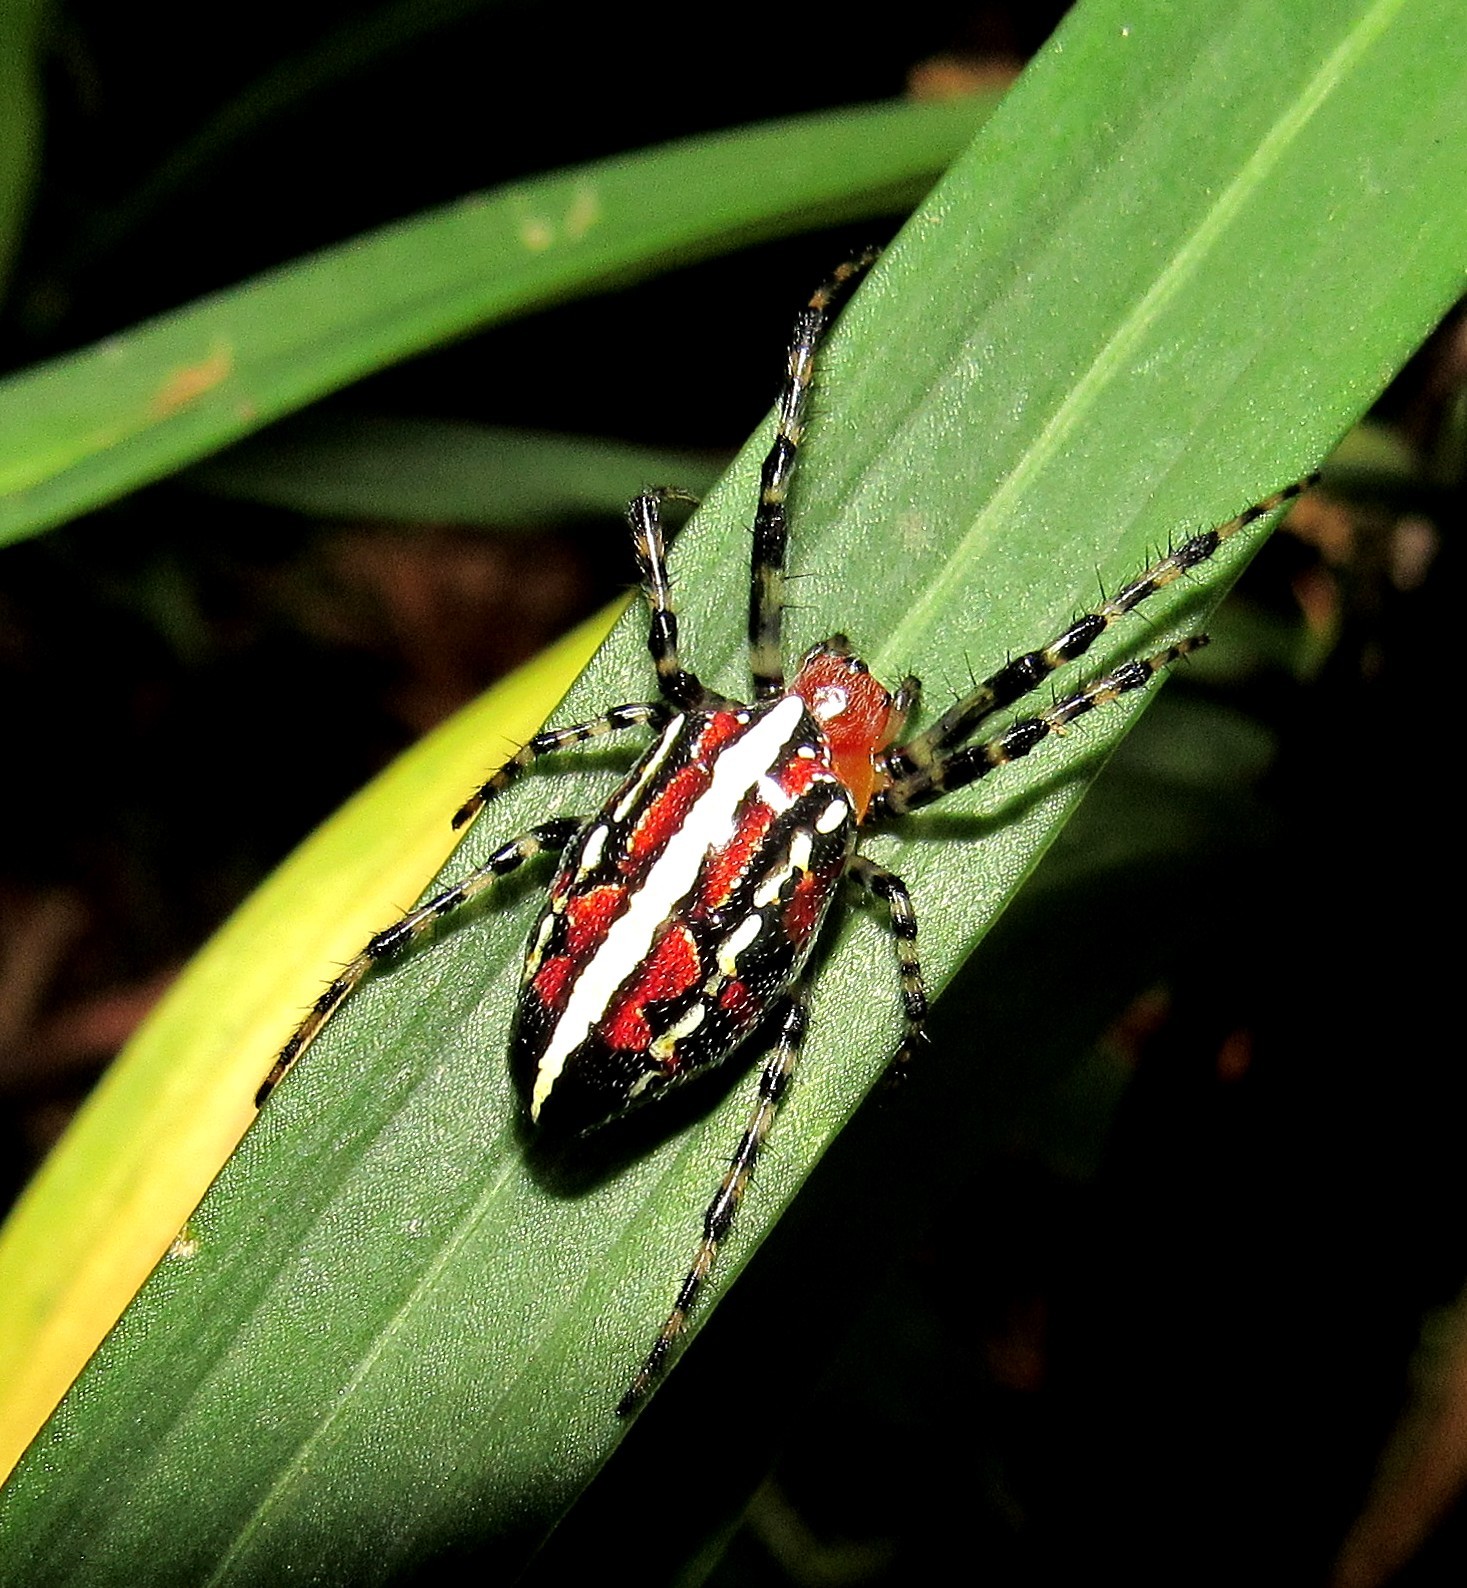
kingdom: Animalia
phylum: Arthropoda
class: Arachnida
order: Araneae
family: Araneidae
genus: Alpaida
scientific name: Alpaida grayi
